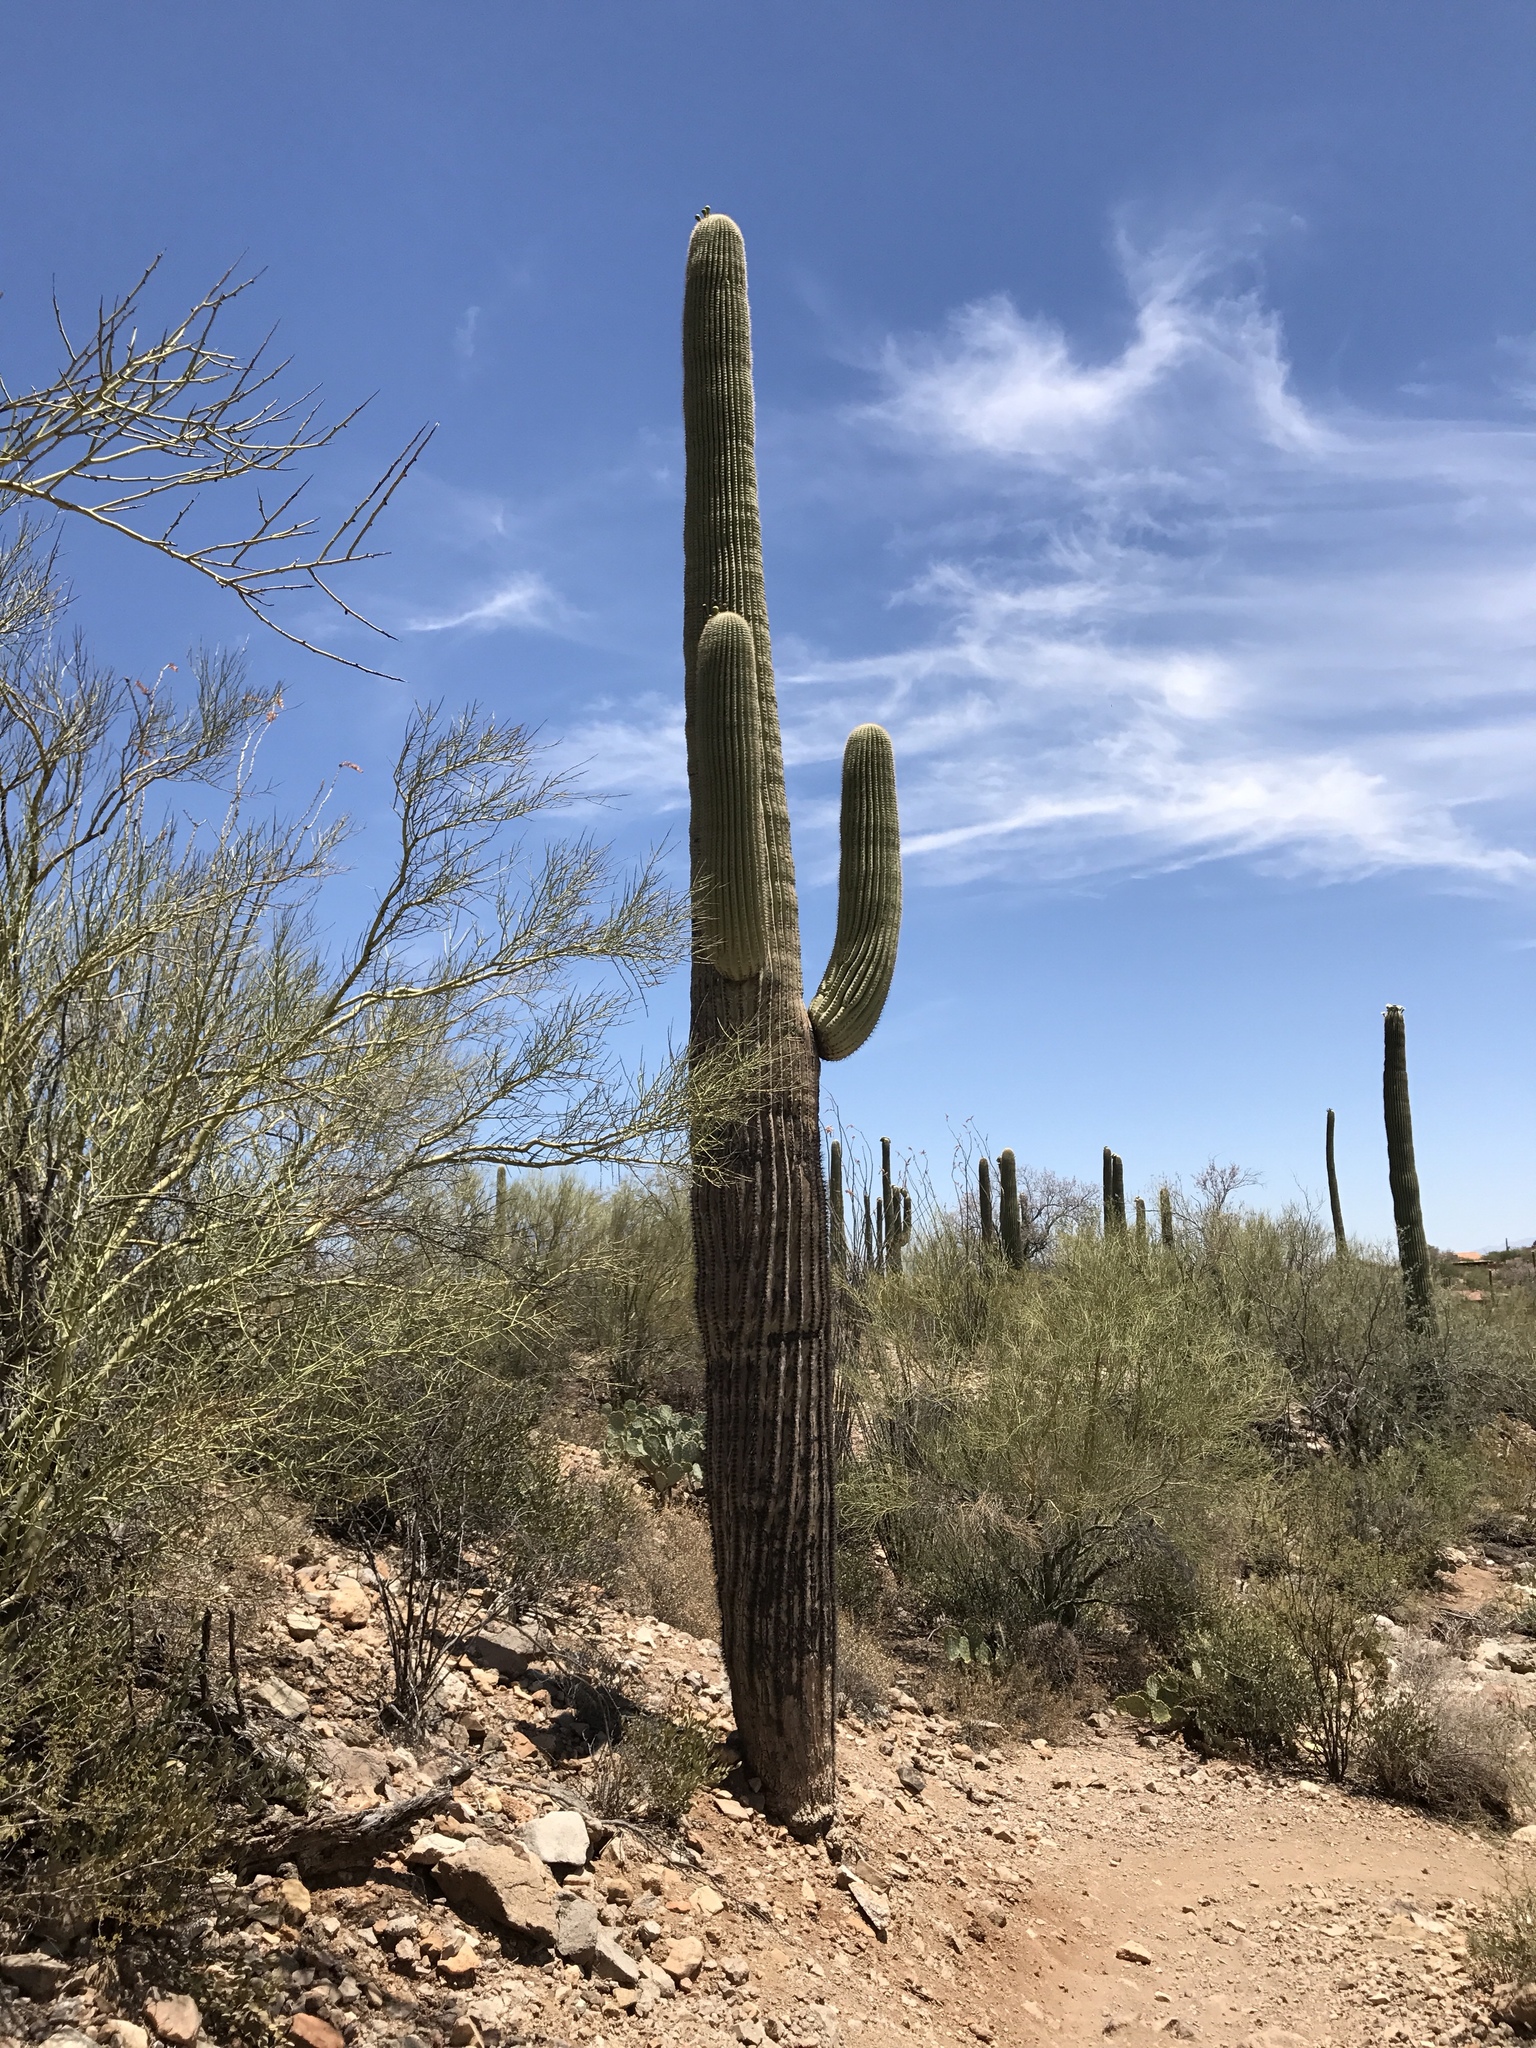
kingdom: Plantae
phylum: Tracheophyta
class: Magnoliopsida
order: Caryophyllales
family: Cactaceae
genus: Carnegiea
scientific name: Carnegiea gigantea
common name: Saguaro
